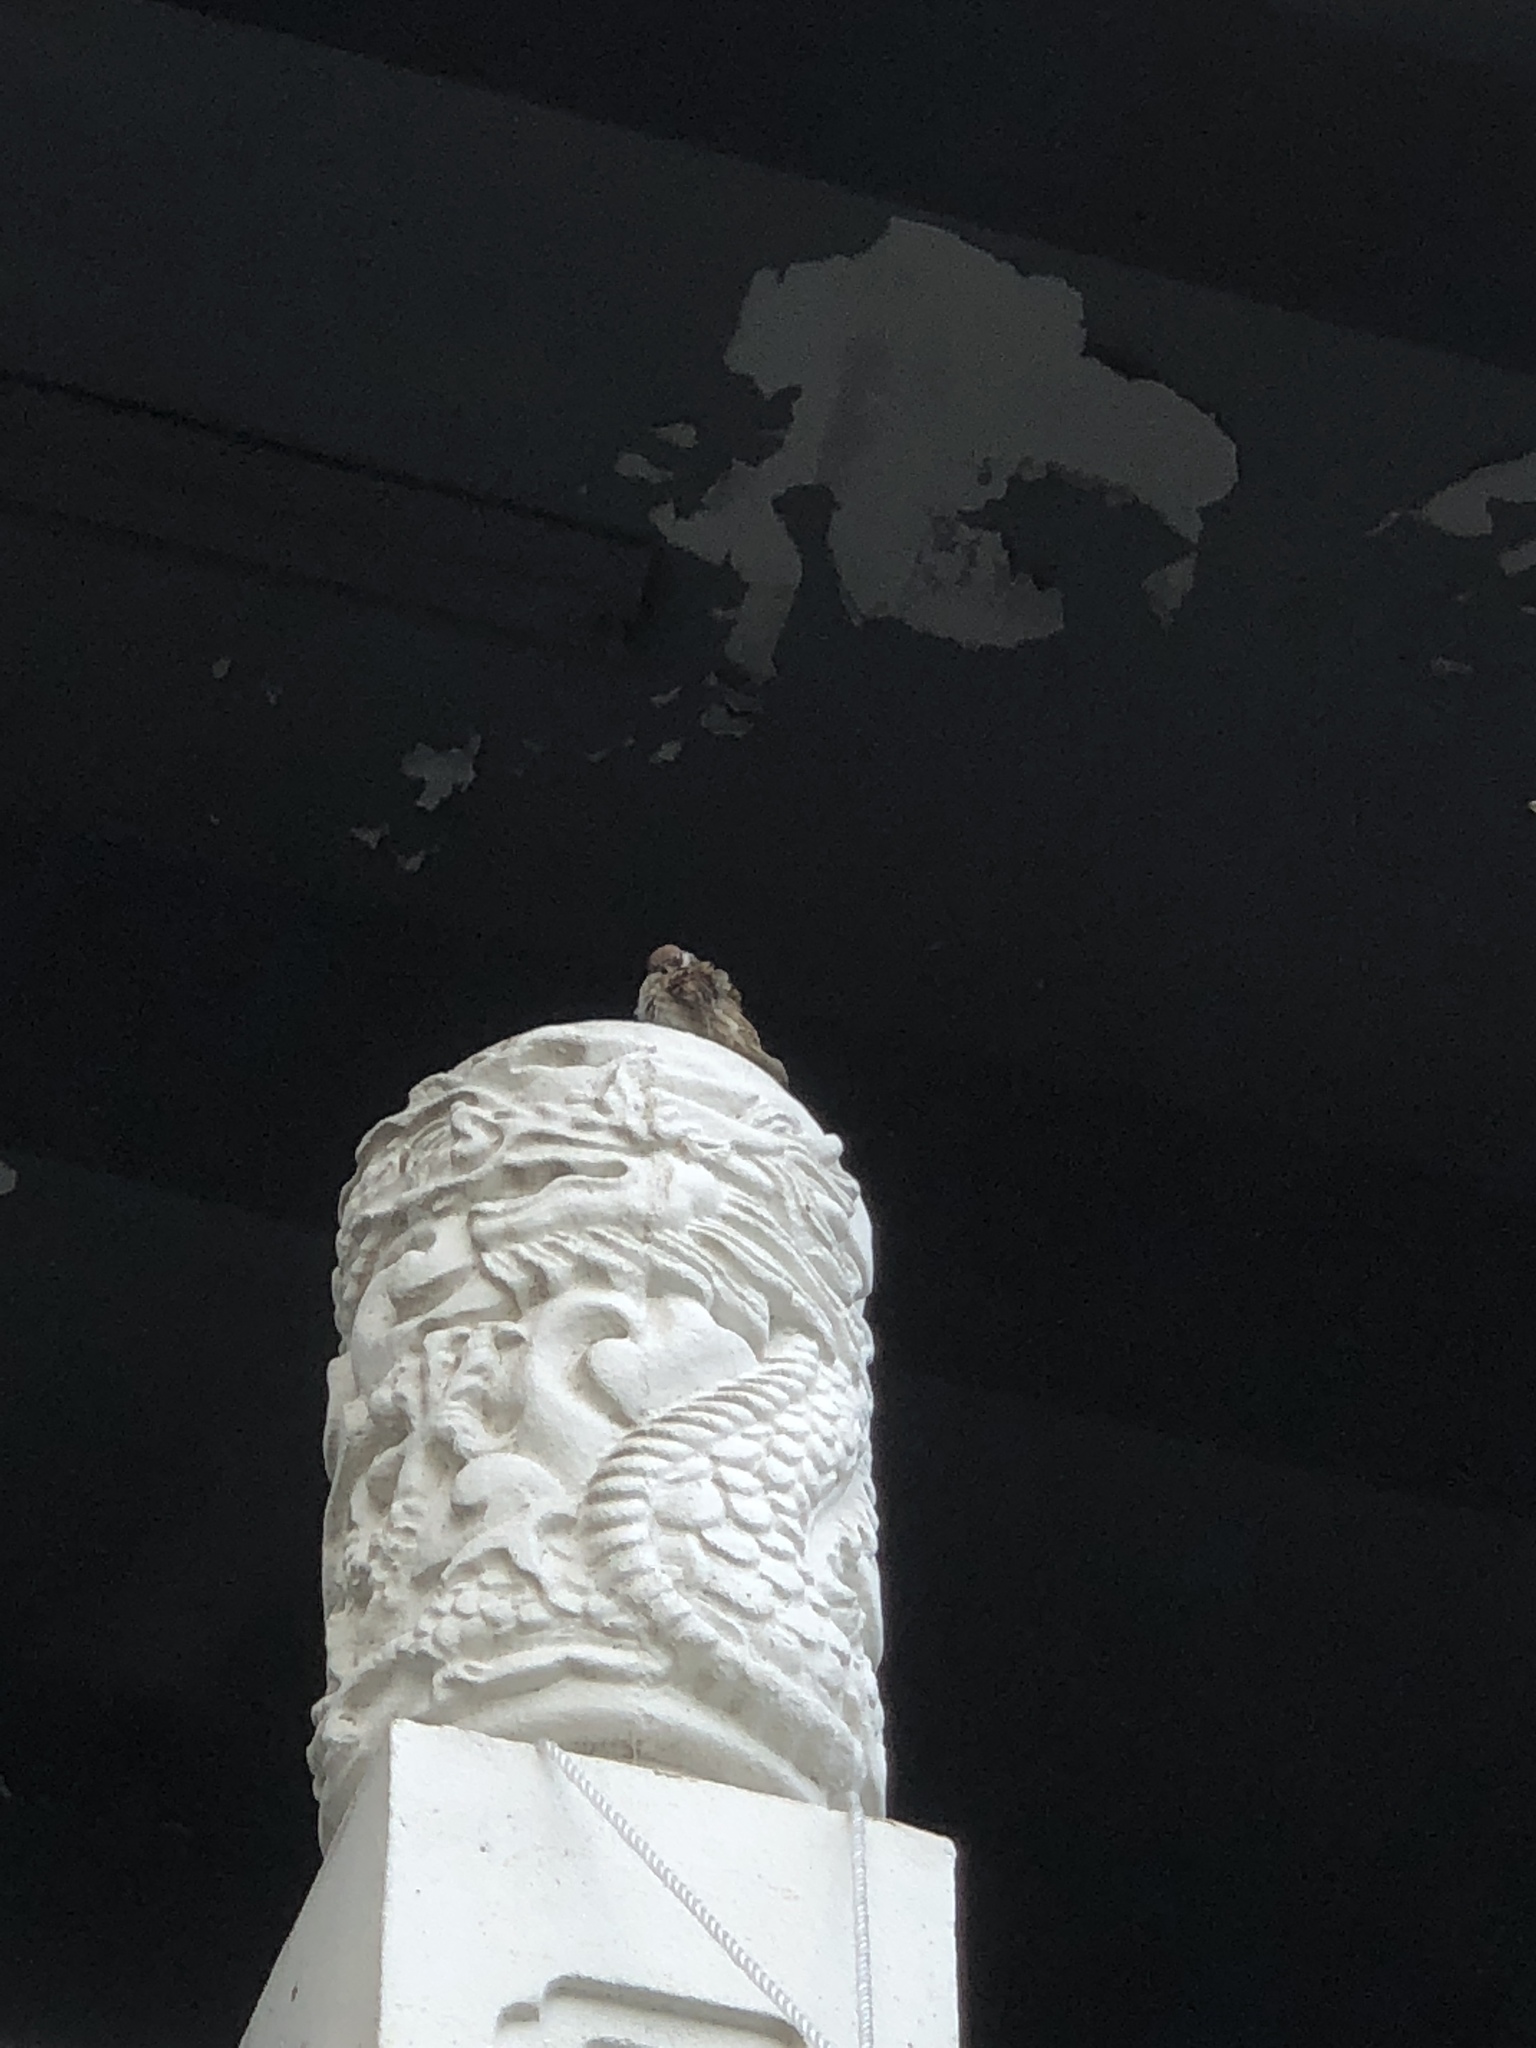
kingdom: Animalia
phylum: Chordata
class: Aves
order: Passeriformes
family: Passeridae
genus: Passer
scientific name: Passer montanus
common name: Eurasian tree sparrow
